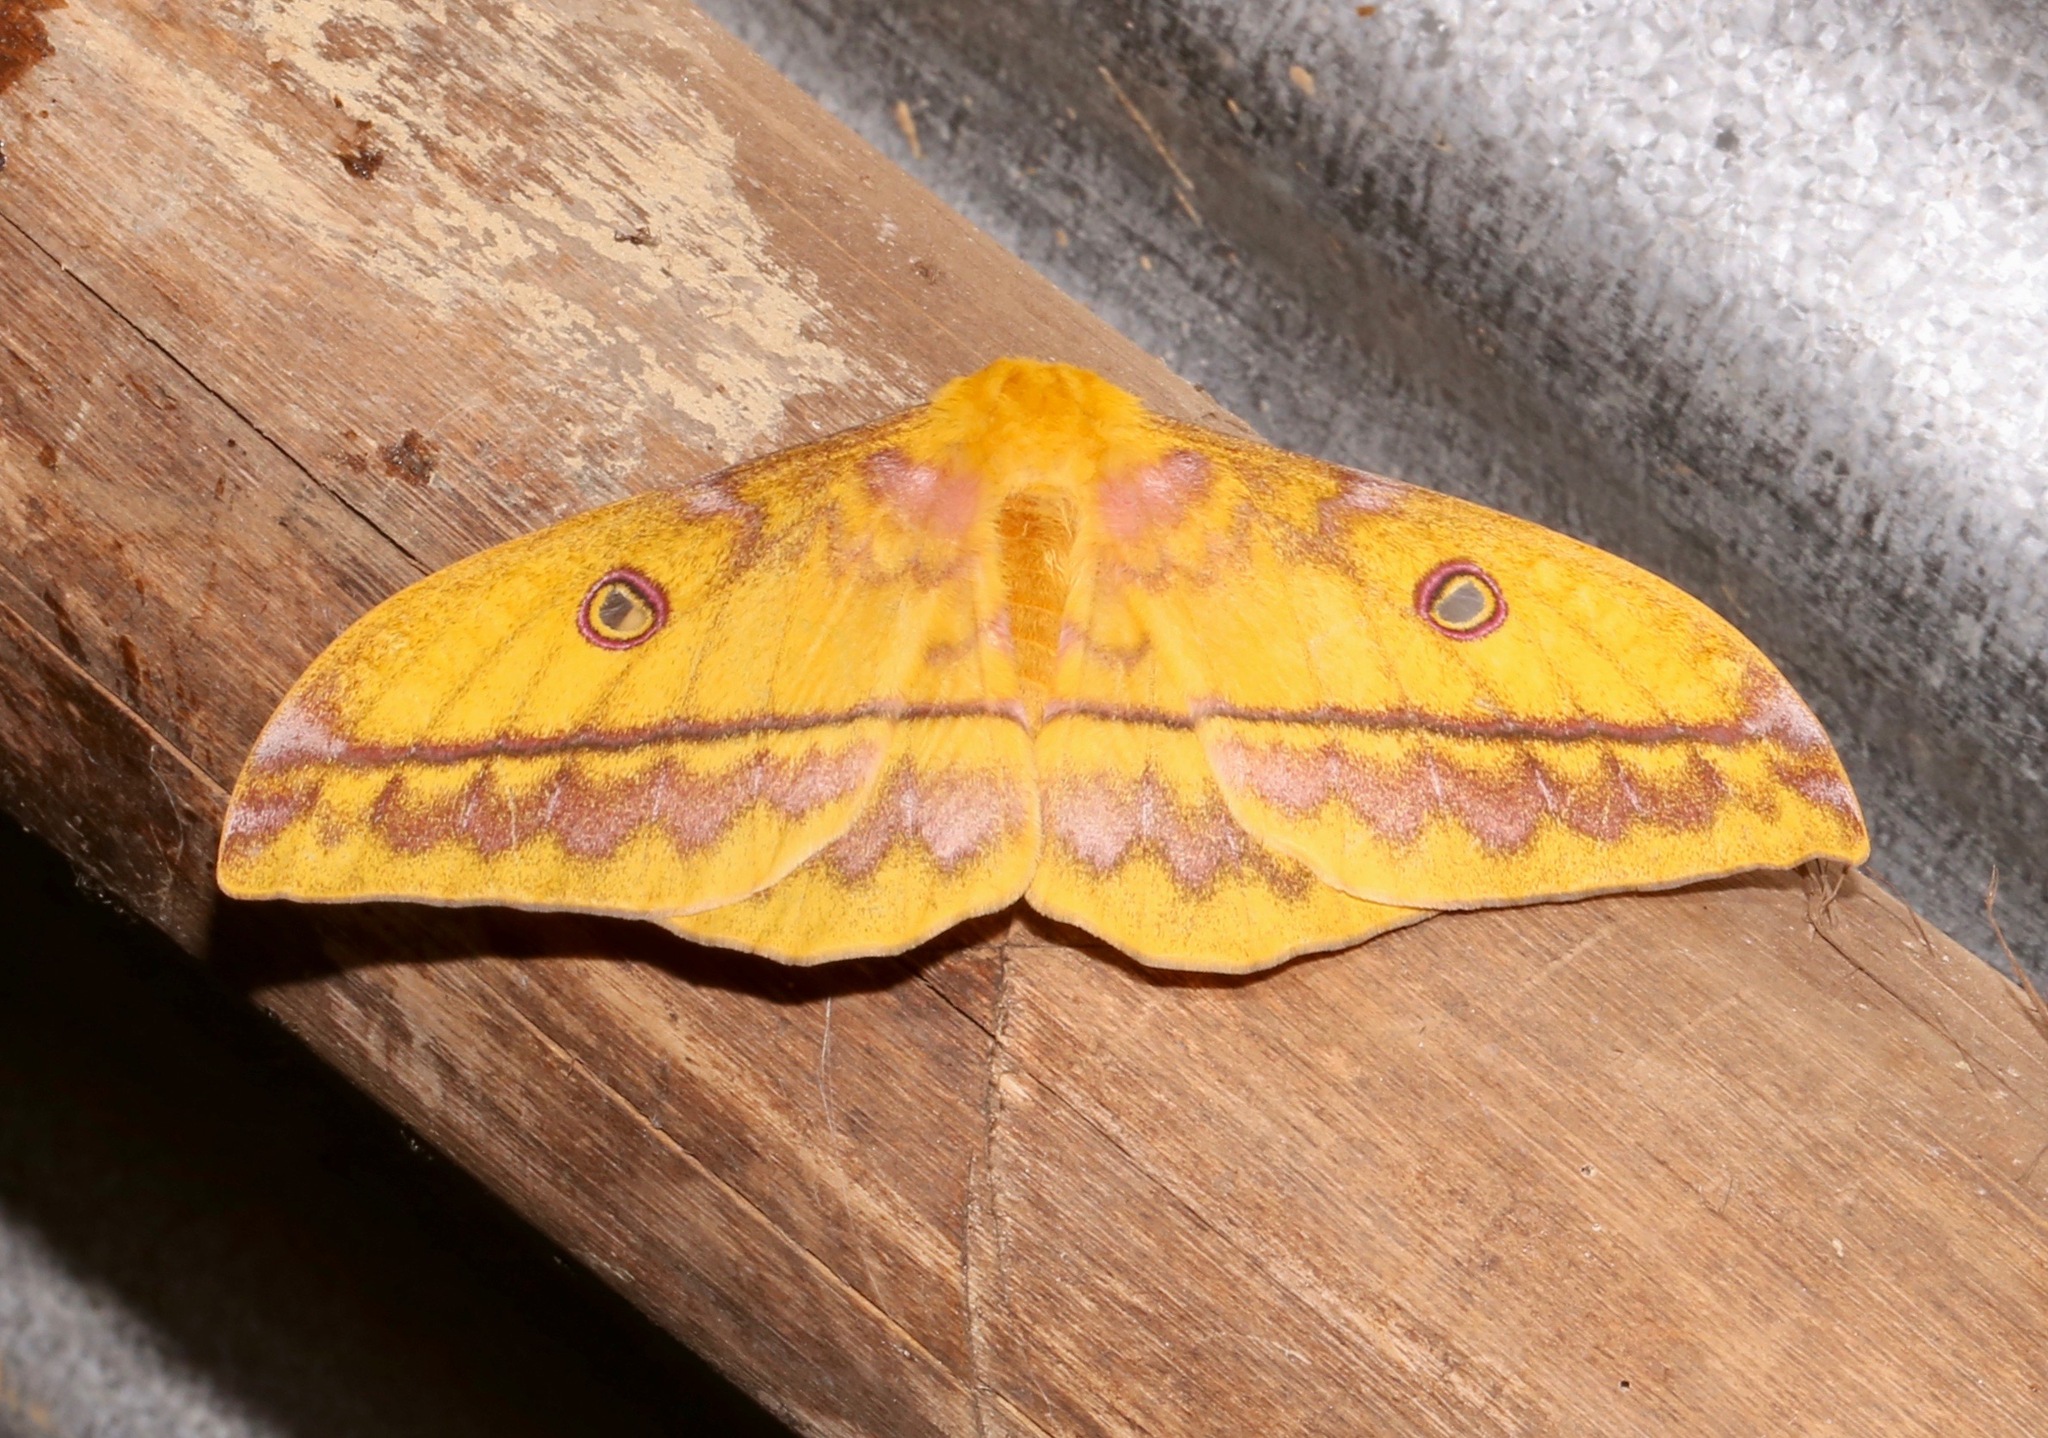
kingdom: Animalia
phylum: Arthropoda
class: Insecta
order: Lepidoptera
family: Saturniidae
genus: Nudaurelia
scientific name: Nudaurelia wahlbergi
